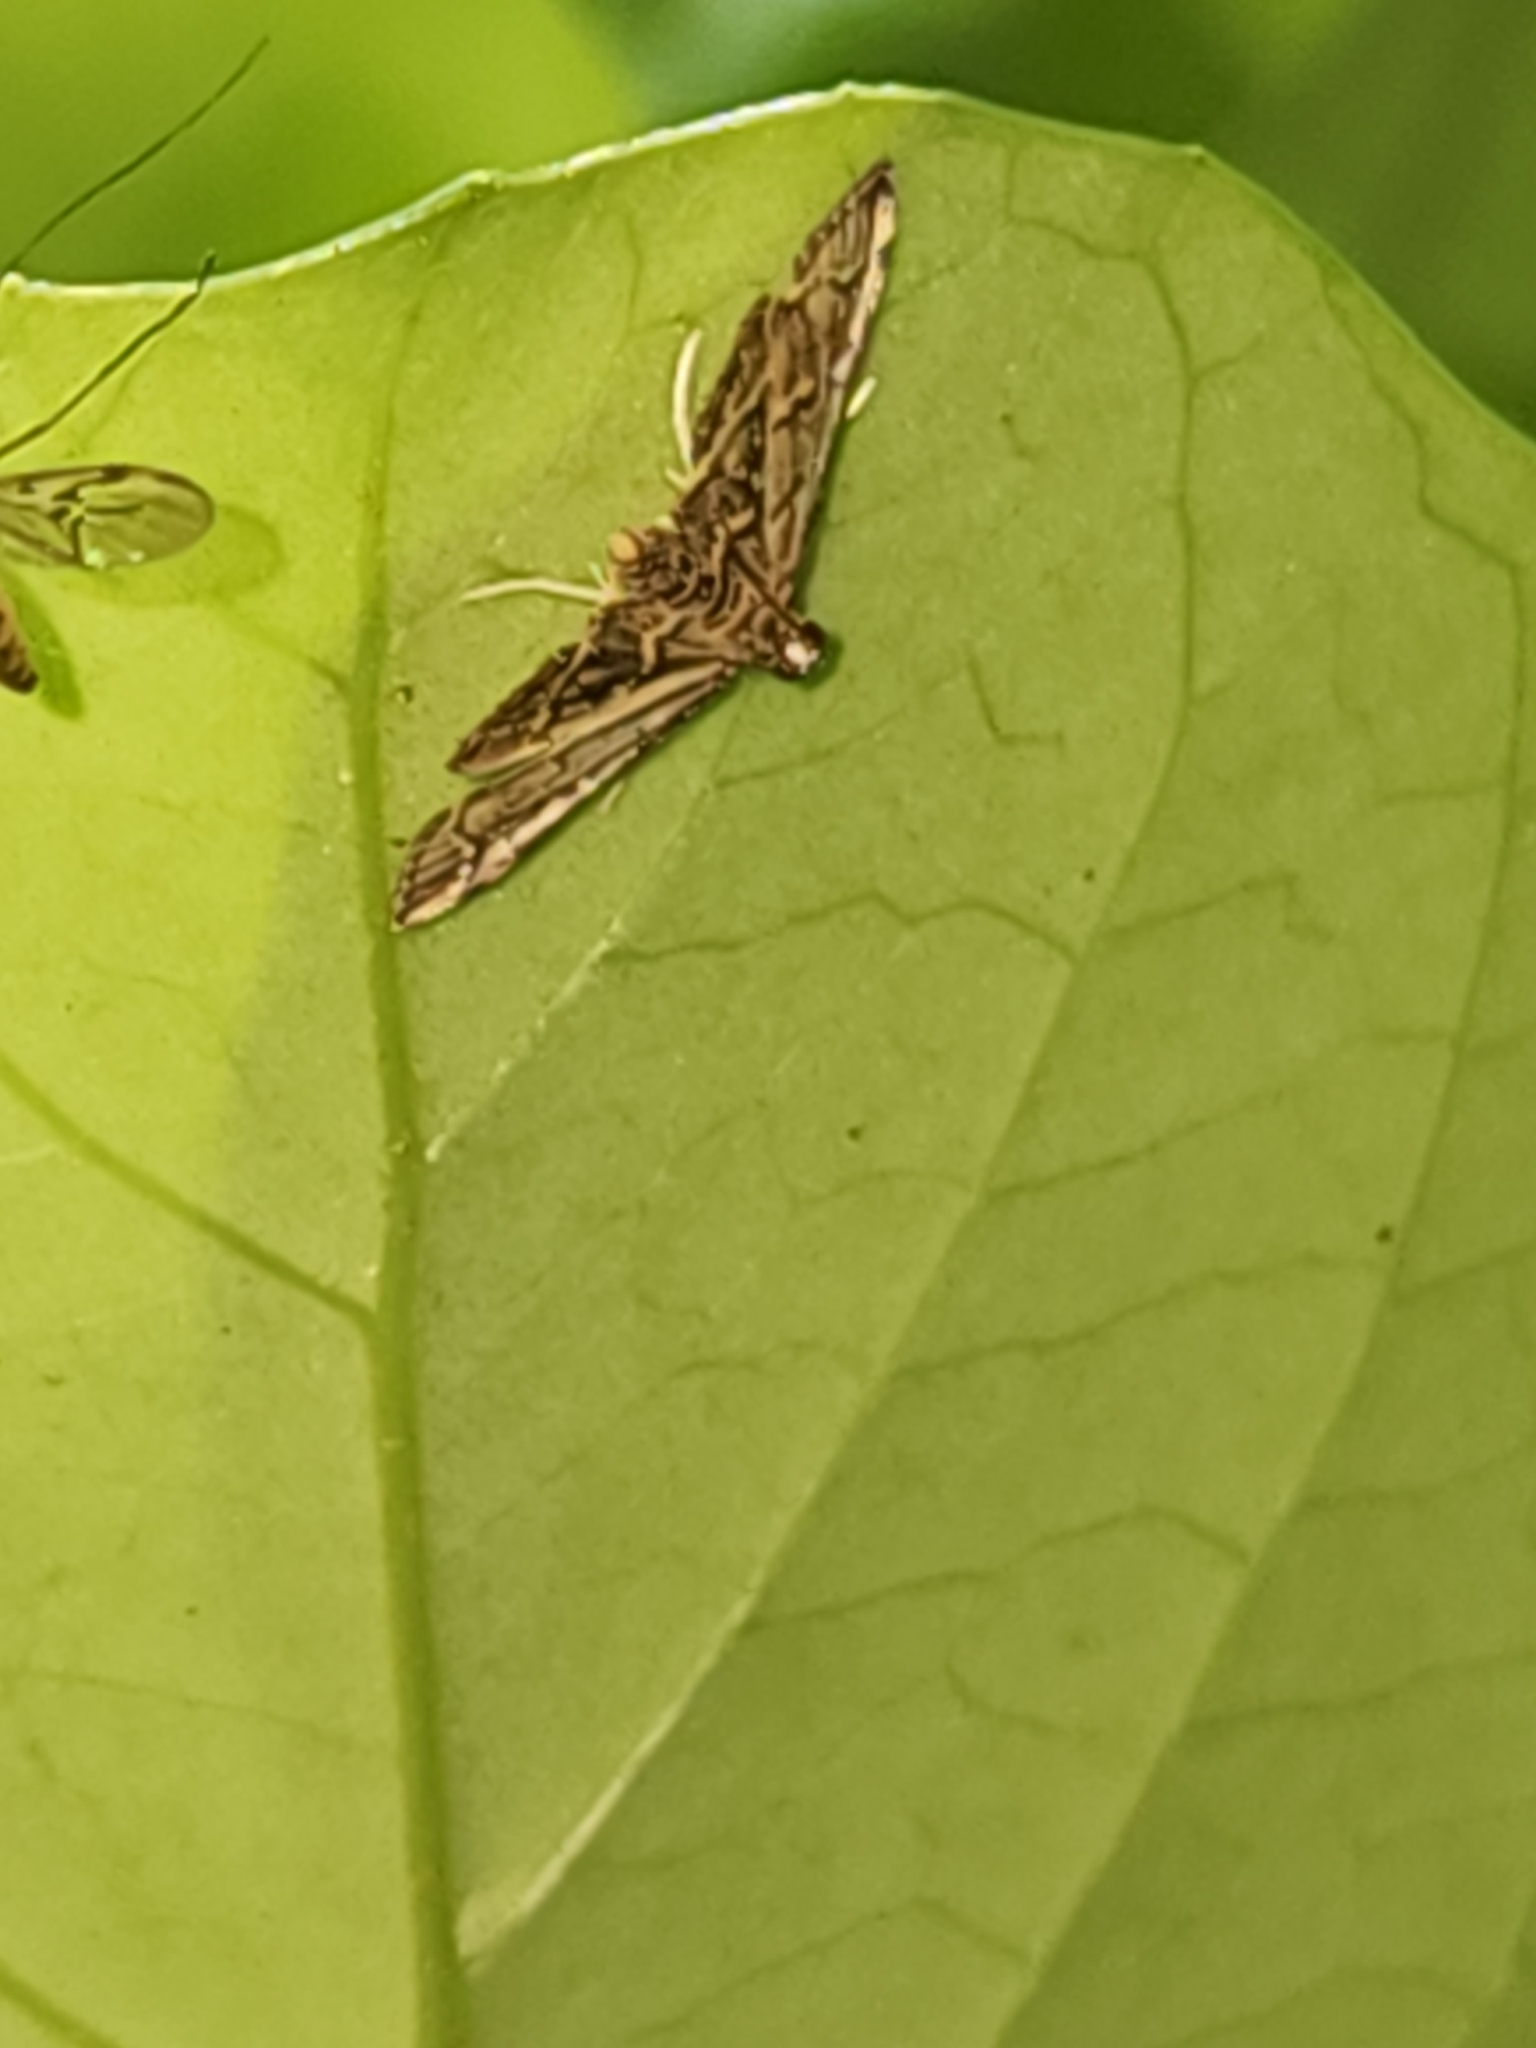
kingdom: Animalia
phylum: Arthropoda
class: Insecta
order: Lepidoptera
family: Crambidae
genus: Anageshna
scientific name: Anageshna primordialis
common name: Yellow-spotted webworm moth
